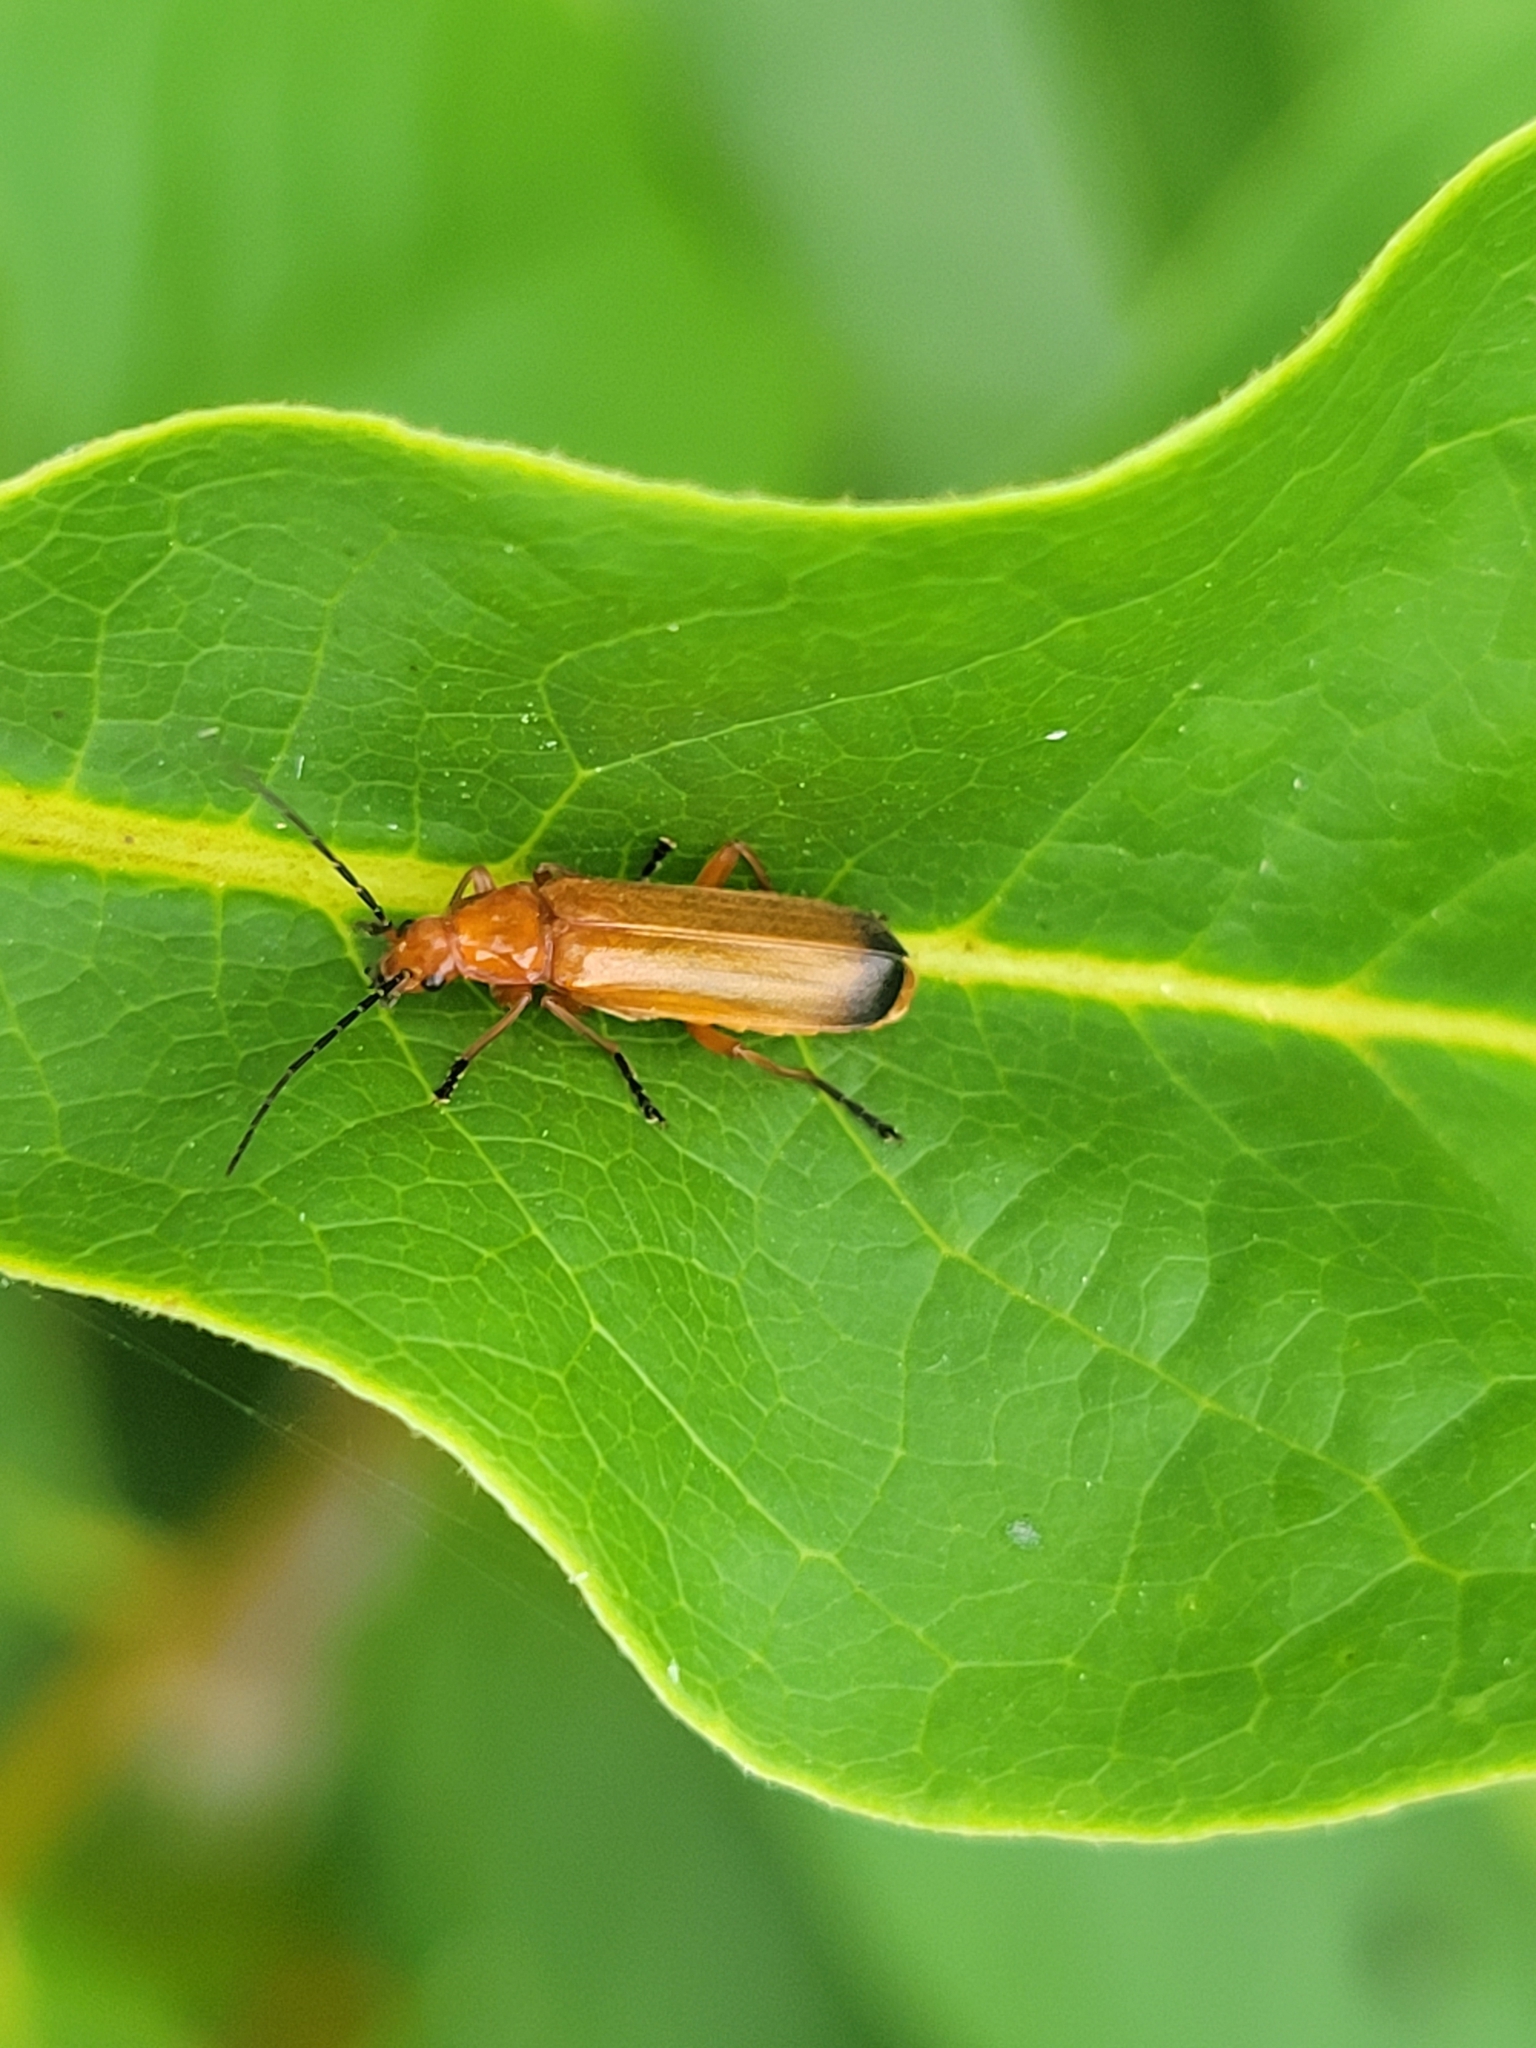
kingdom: Animalia
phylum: Arthropoda
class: Insecta
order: Coleoptera
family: Cantharidae
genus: Rhagonycha
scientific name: Rhagonycha fulva
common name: Common red soldier beetle
